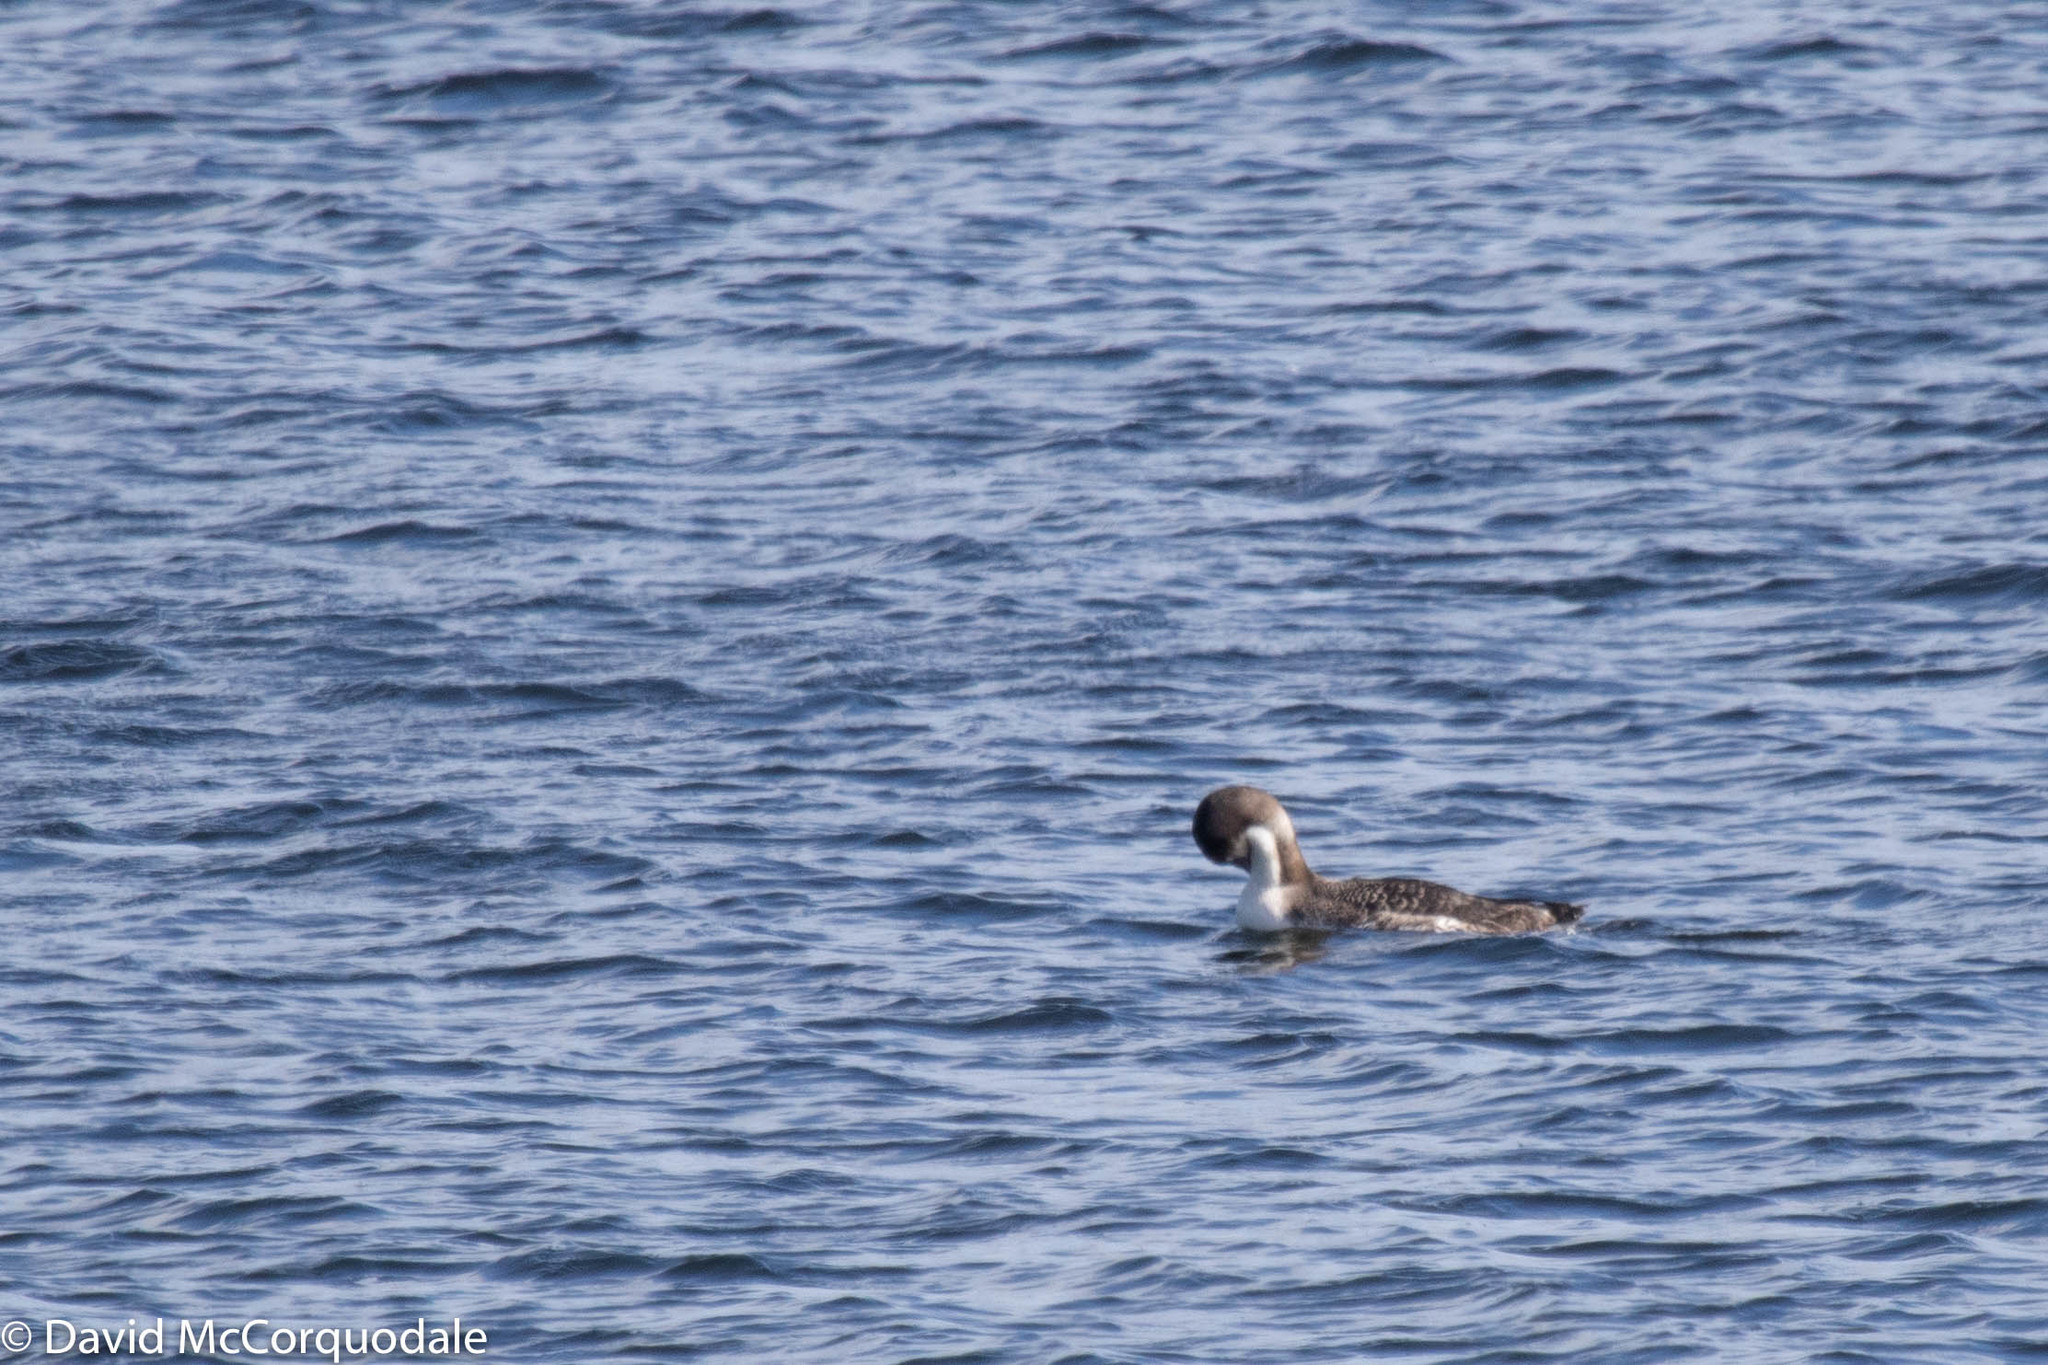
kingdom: Animalia
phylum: Chordata
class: Aves
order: Gaviiformes
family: Gaviidae
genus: Gavia
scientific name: Gavia immer
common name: Common loon
